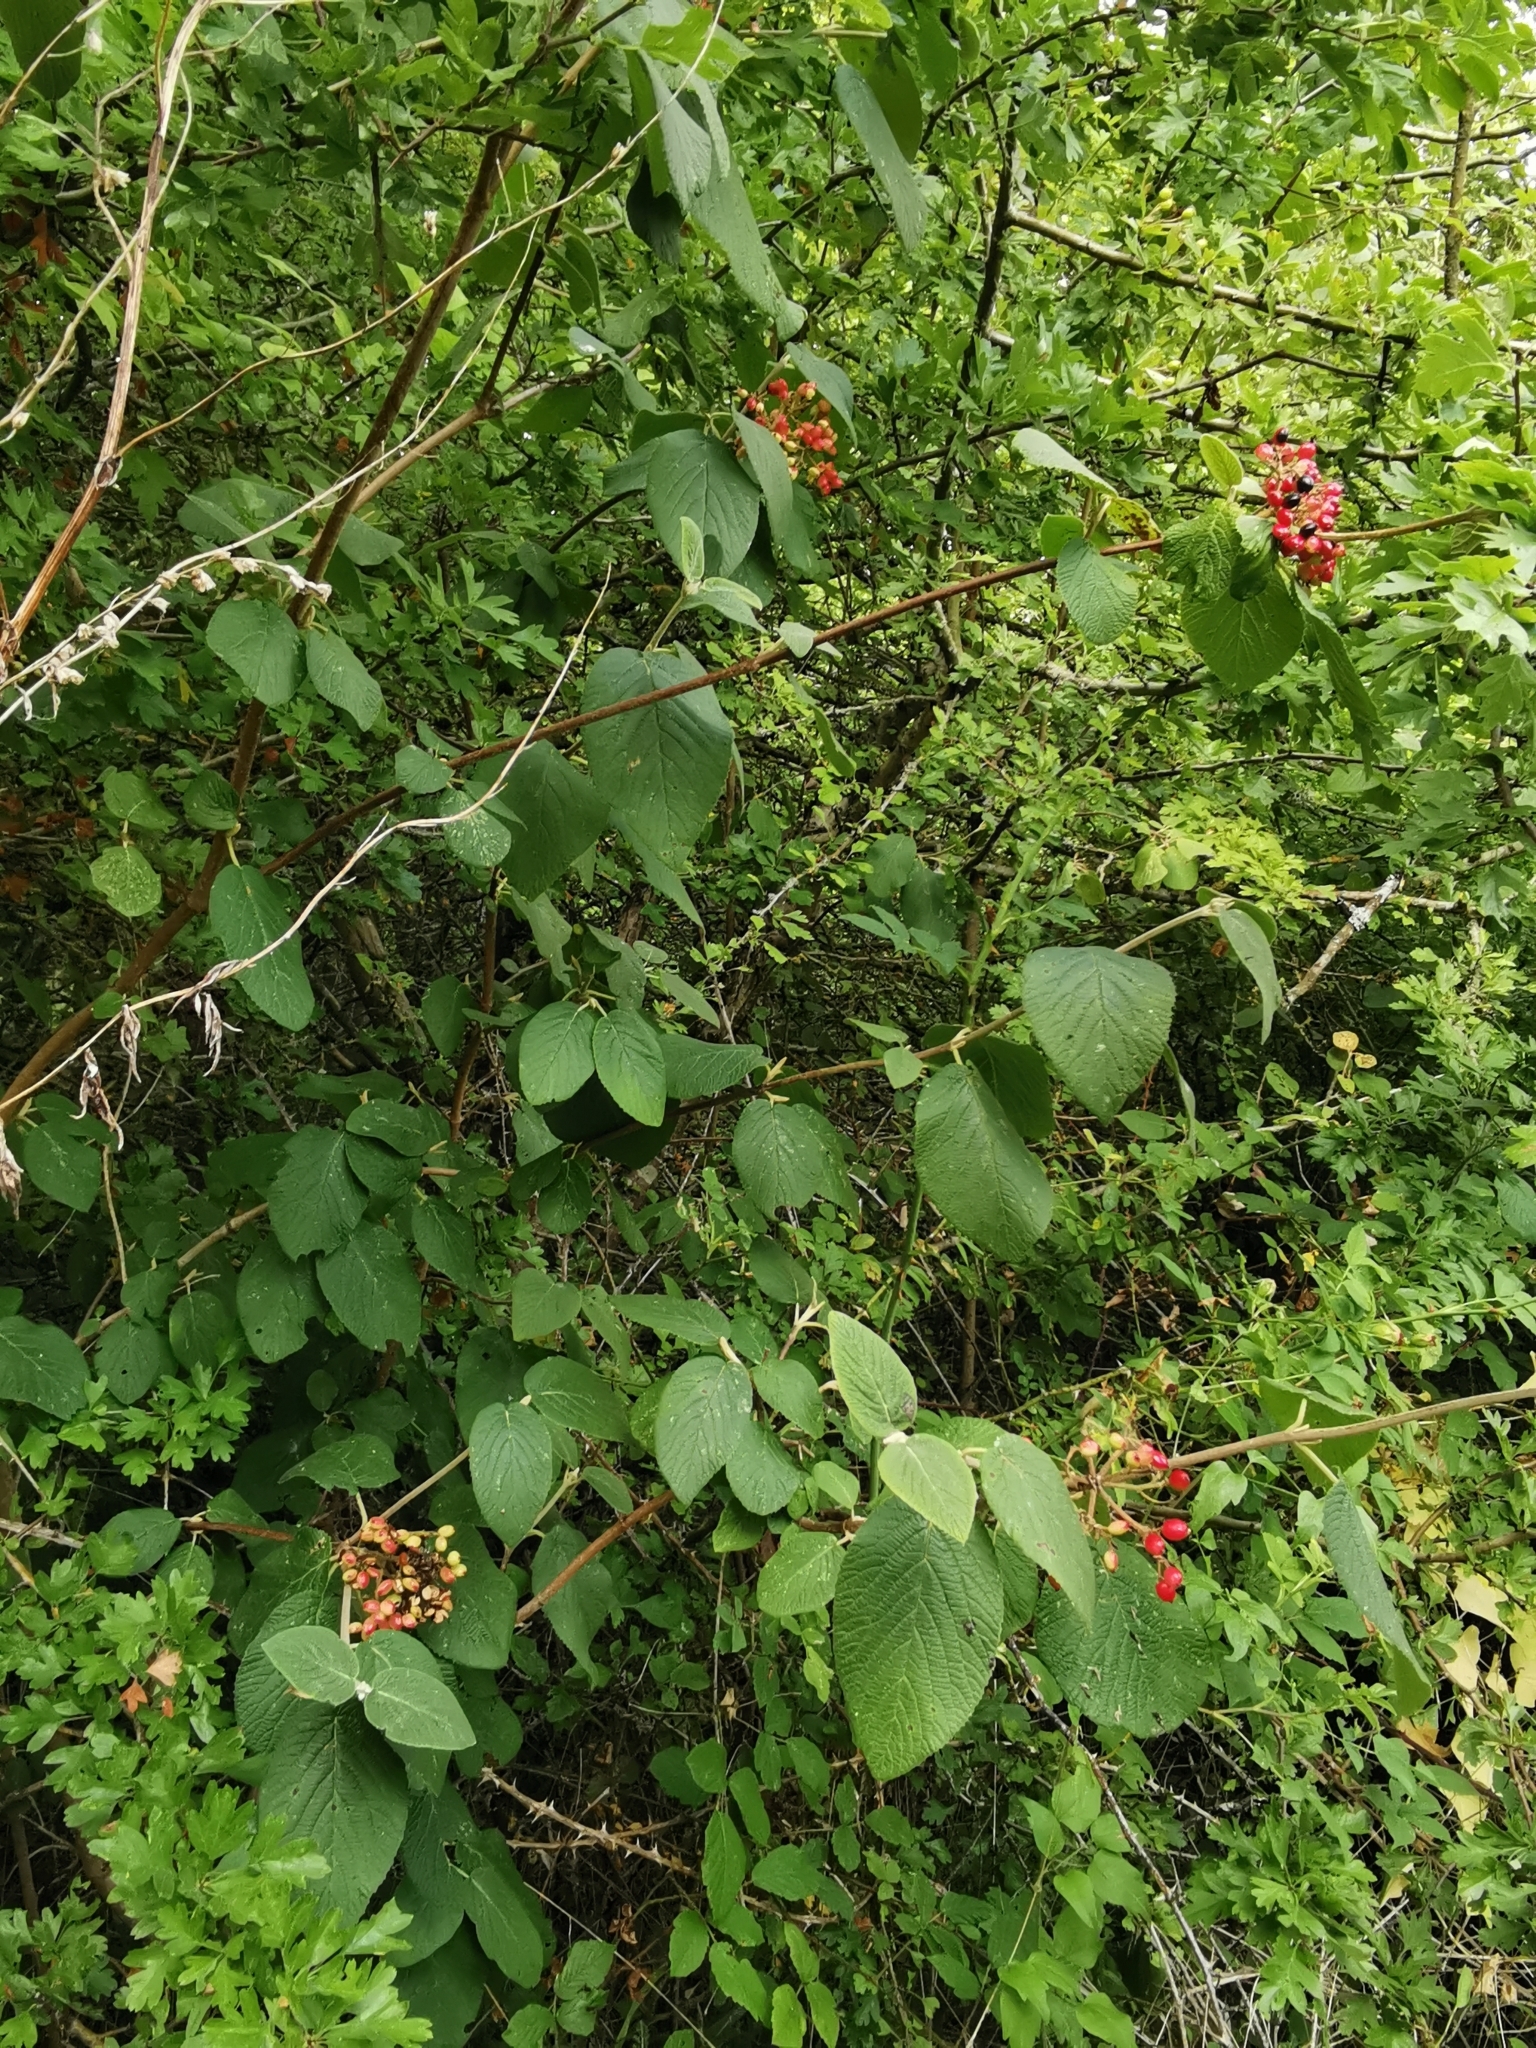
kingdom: Plantae
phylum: Tracheophyta
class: Magnoliopsida
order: Dipsacales
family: Viburnaceae
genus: Viburnum
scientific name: Viburnum lantana
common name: Wayfaring tree
